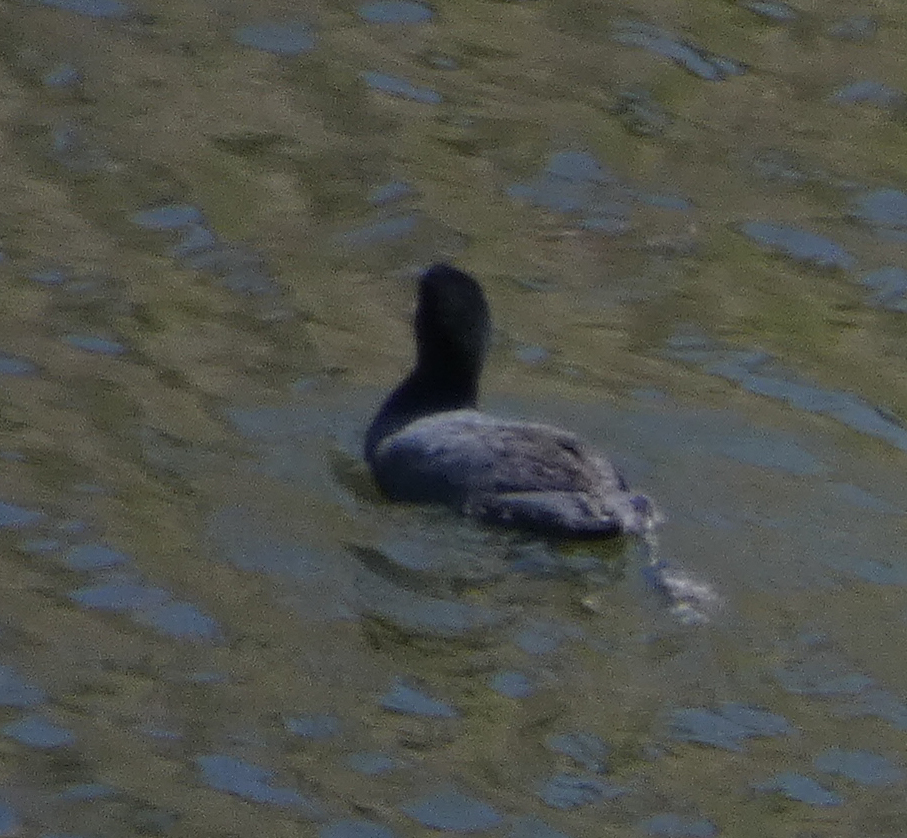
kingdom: Animalia
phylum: Chordata
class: Aves
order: Gruiformes
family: Rallidae
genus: Fulica
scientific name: Fulica americana
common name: American coot
